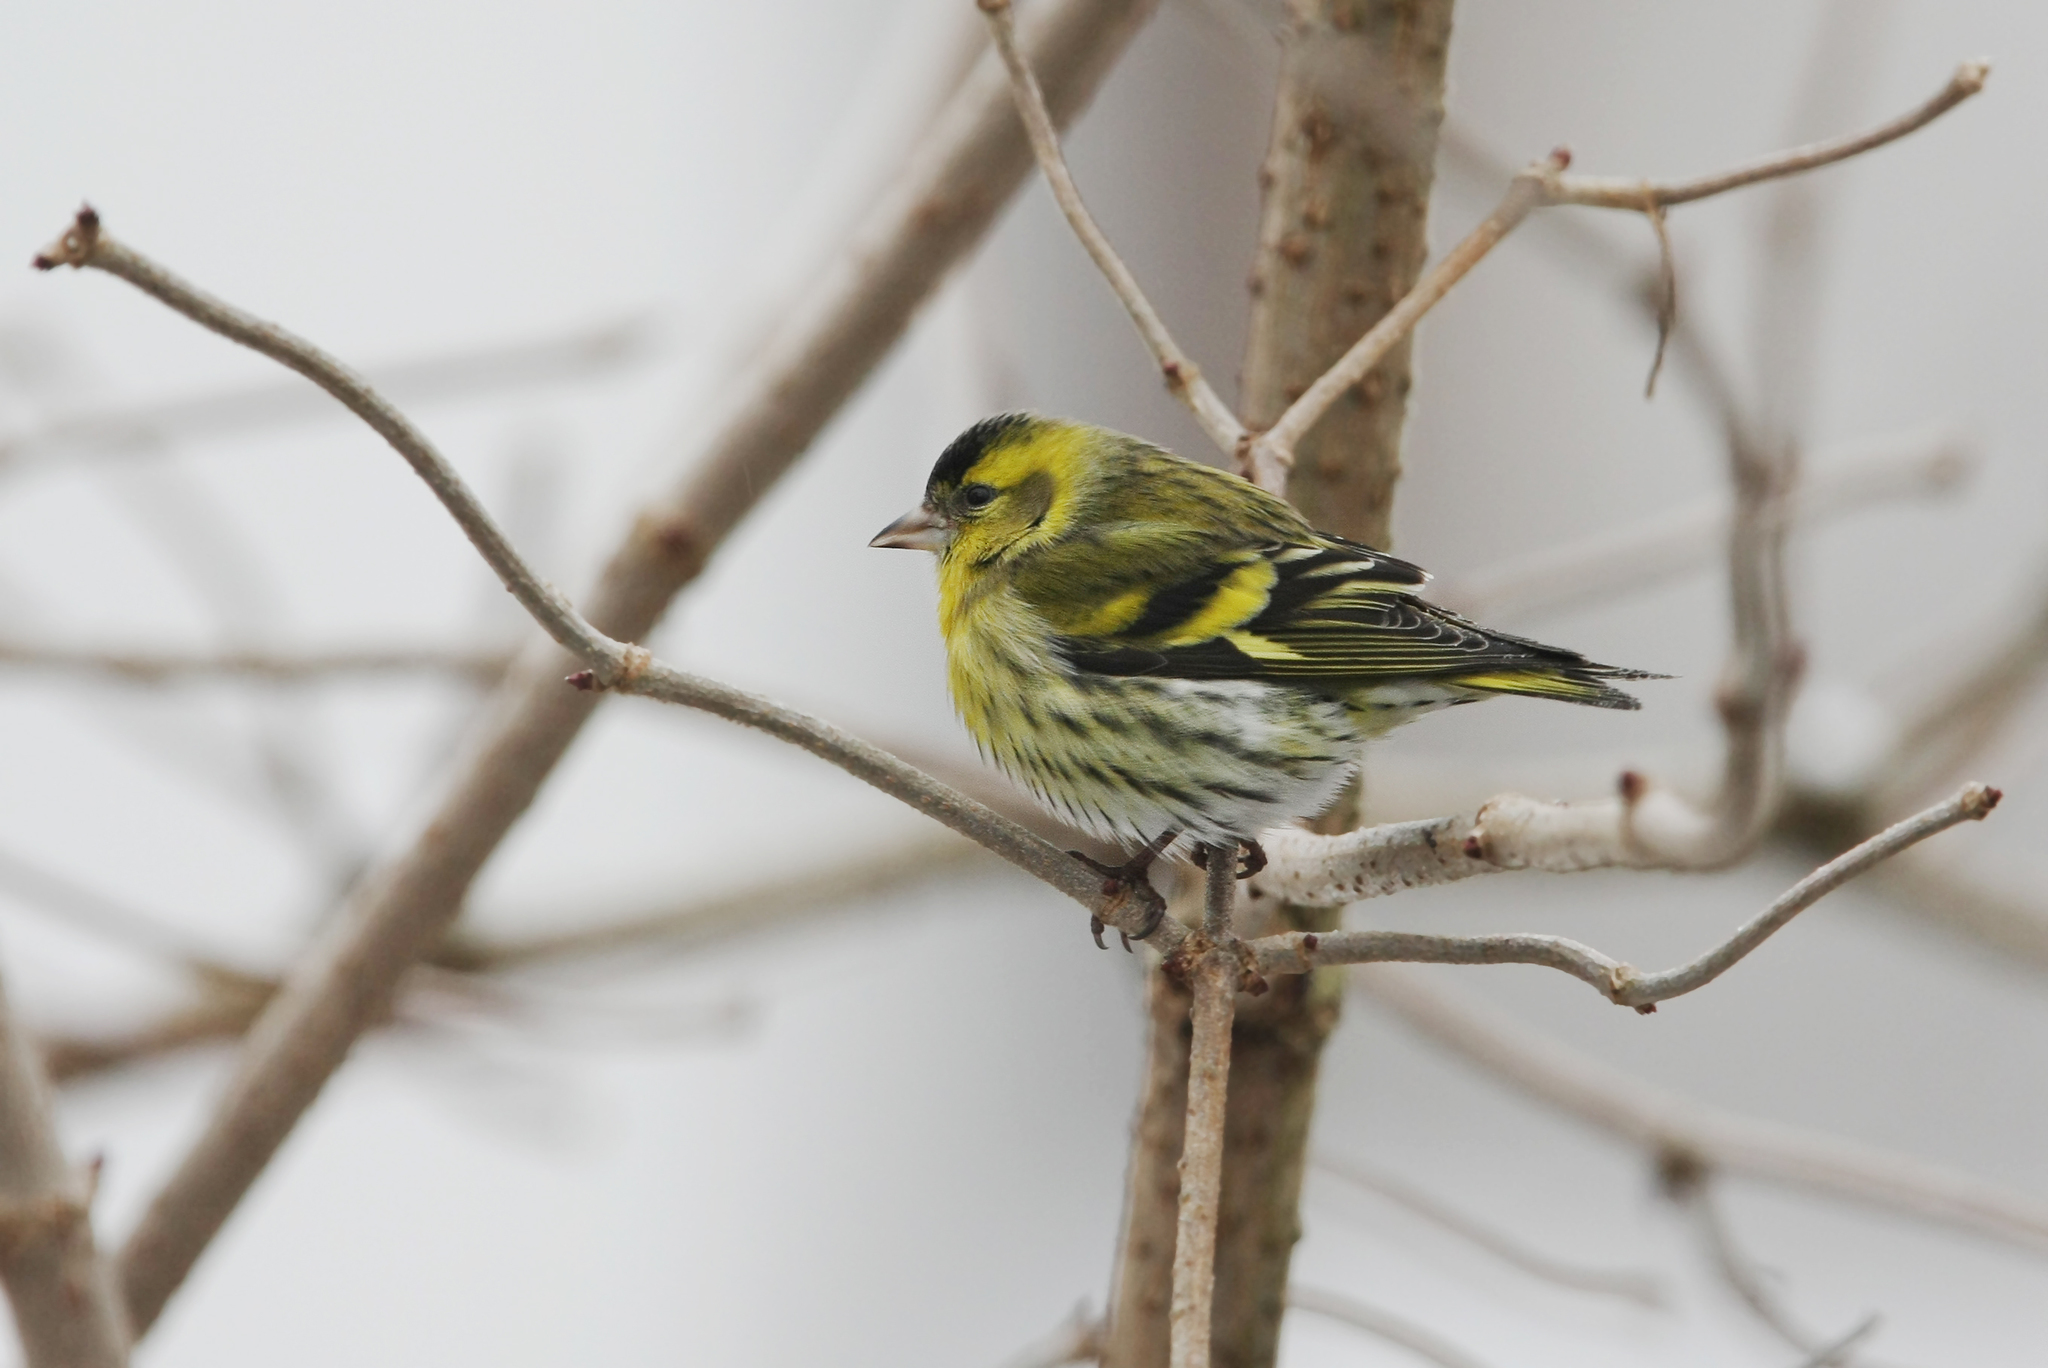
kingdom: Animalia
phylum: Chordata
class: Aves
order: Passeriformes
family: Fringillidae
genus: Spinus
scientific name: Spinus spinus
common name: Eurasian siskin
